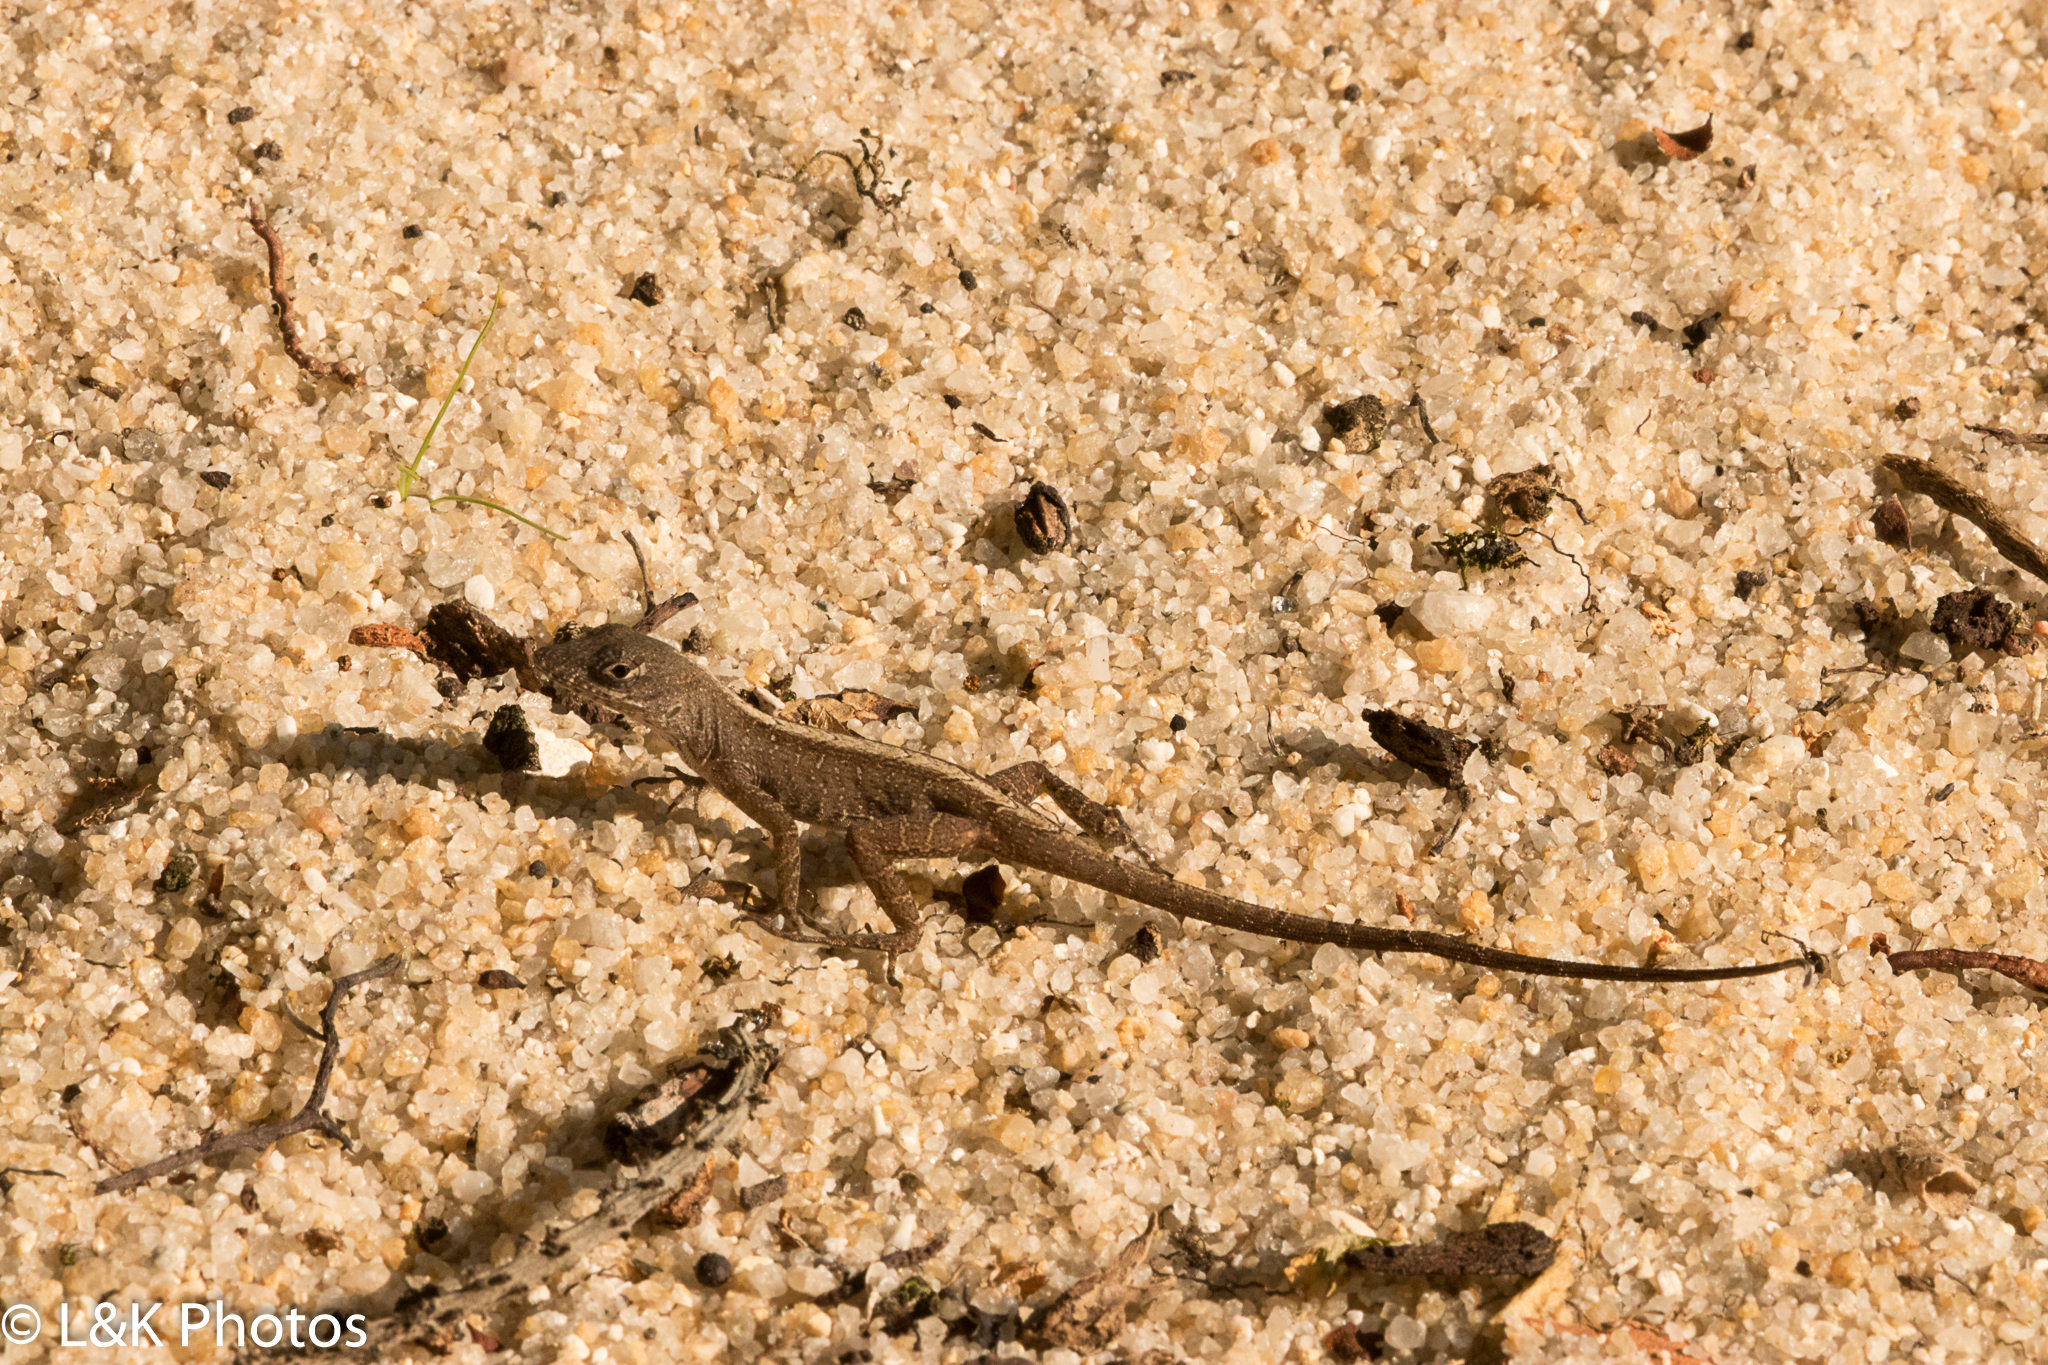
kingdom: Animalia
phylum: Chordata
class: Squamata
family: Dactyloidae
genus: Anolis
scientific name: Anolis sagrei
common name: Brown anole
